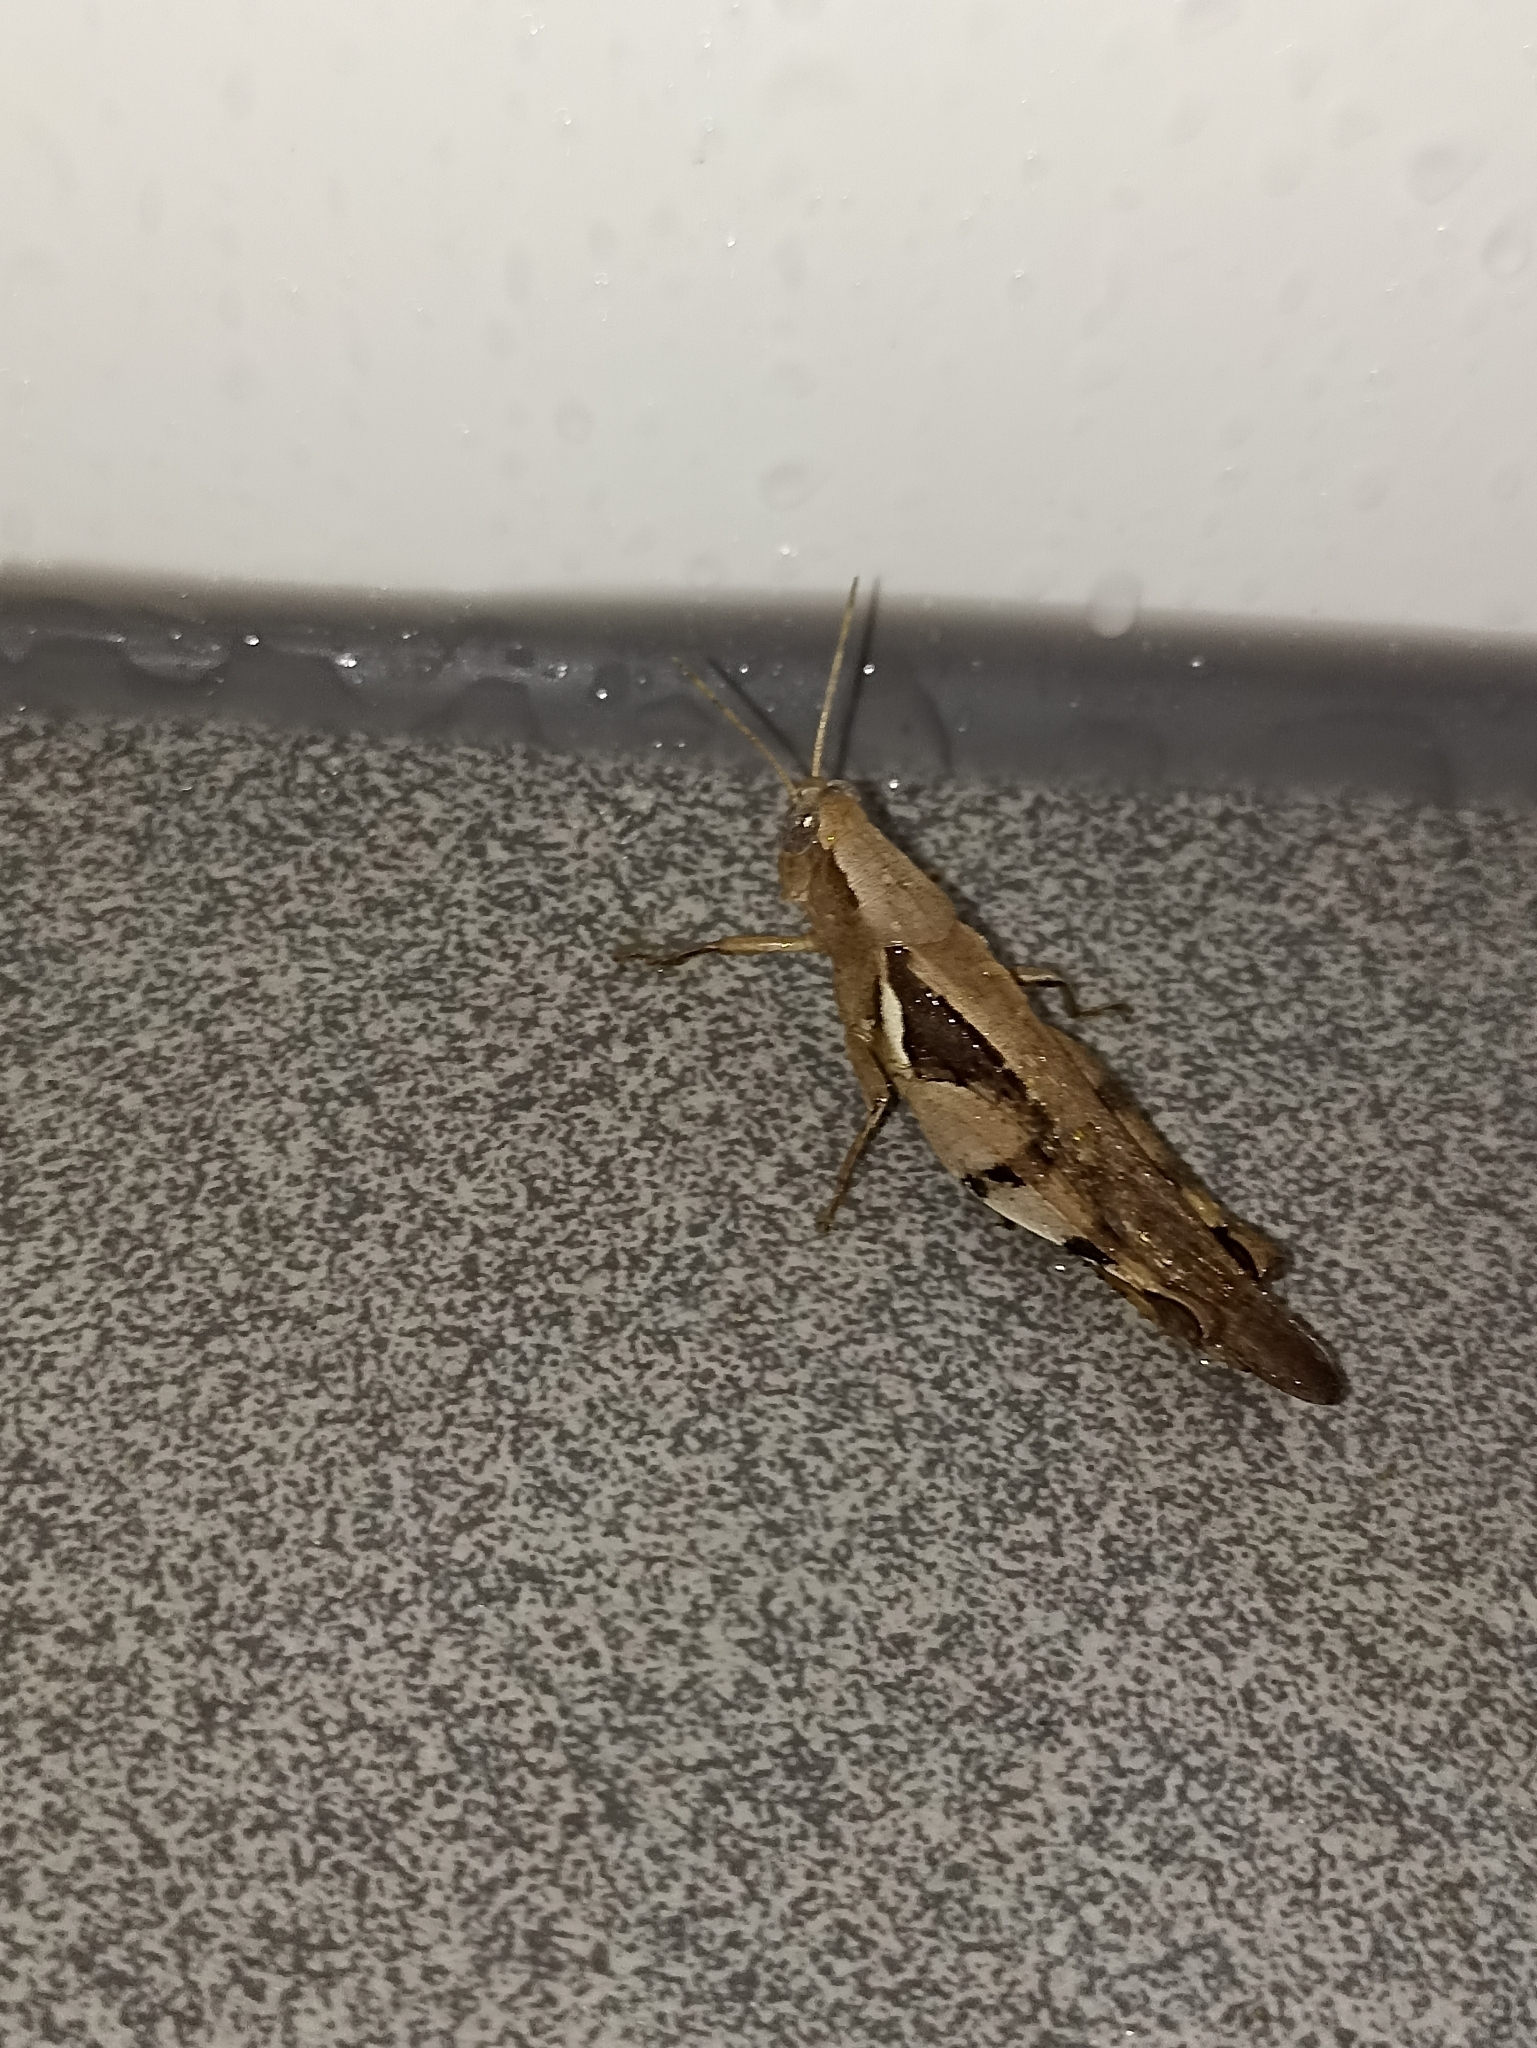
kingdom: Animalia
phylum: Arthropoda
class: Insecta
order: Orthoptera
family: Acrididae
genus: Stenocatantops
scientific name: Stenocatantops angustifrons
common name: Common tropical sharptail
